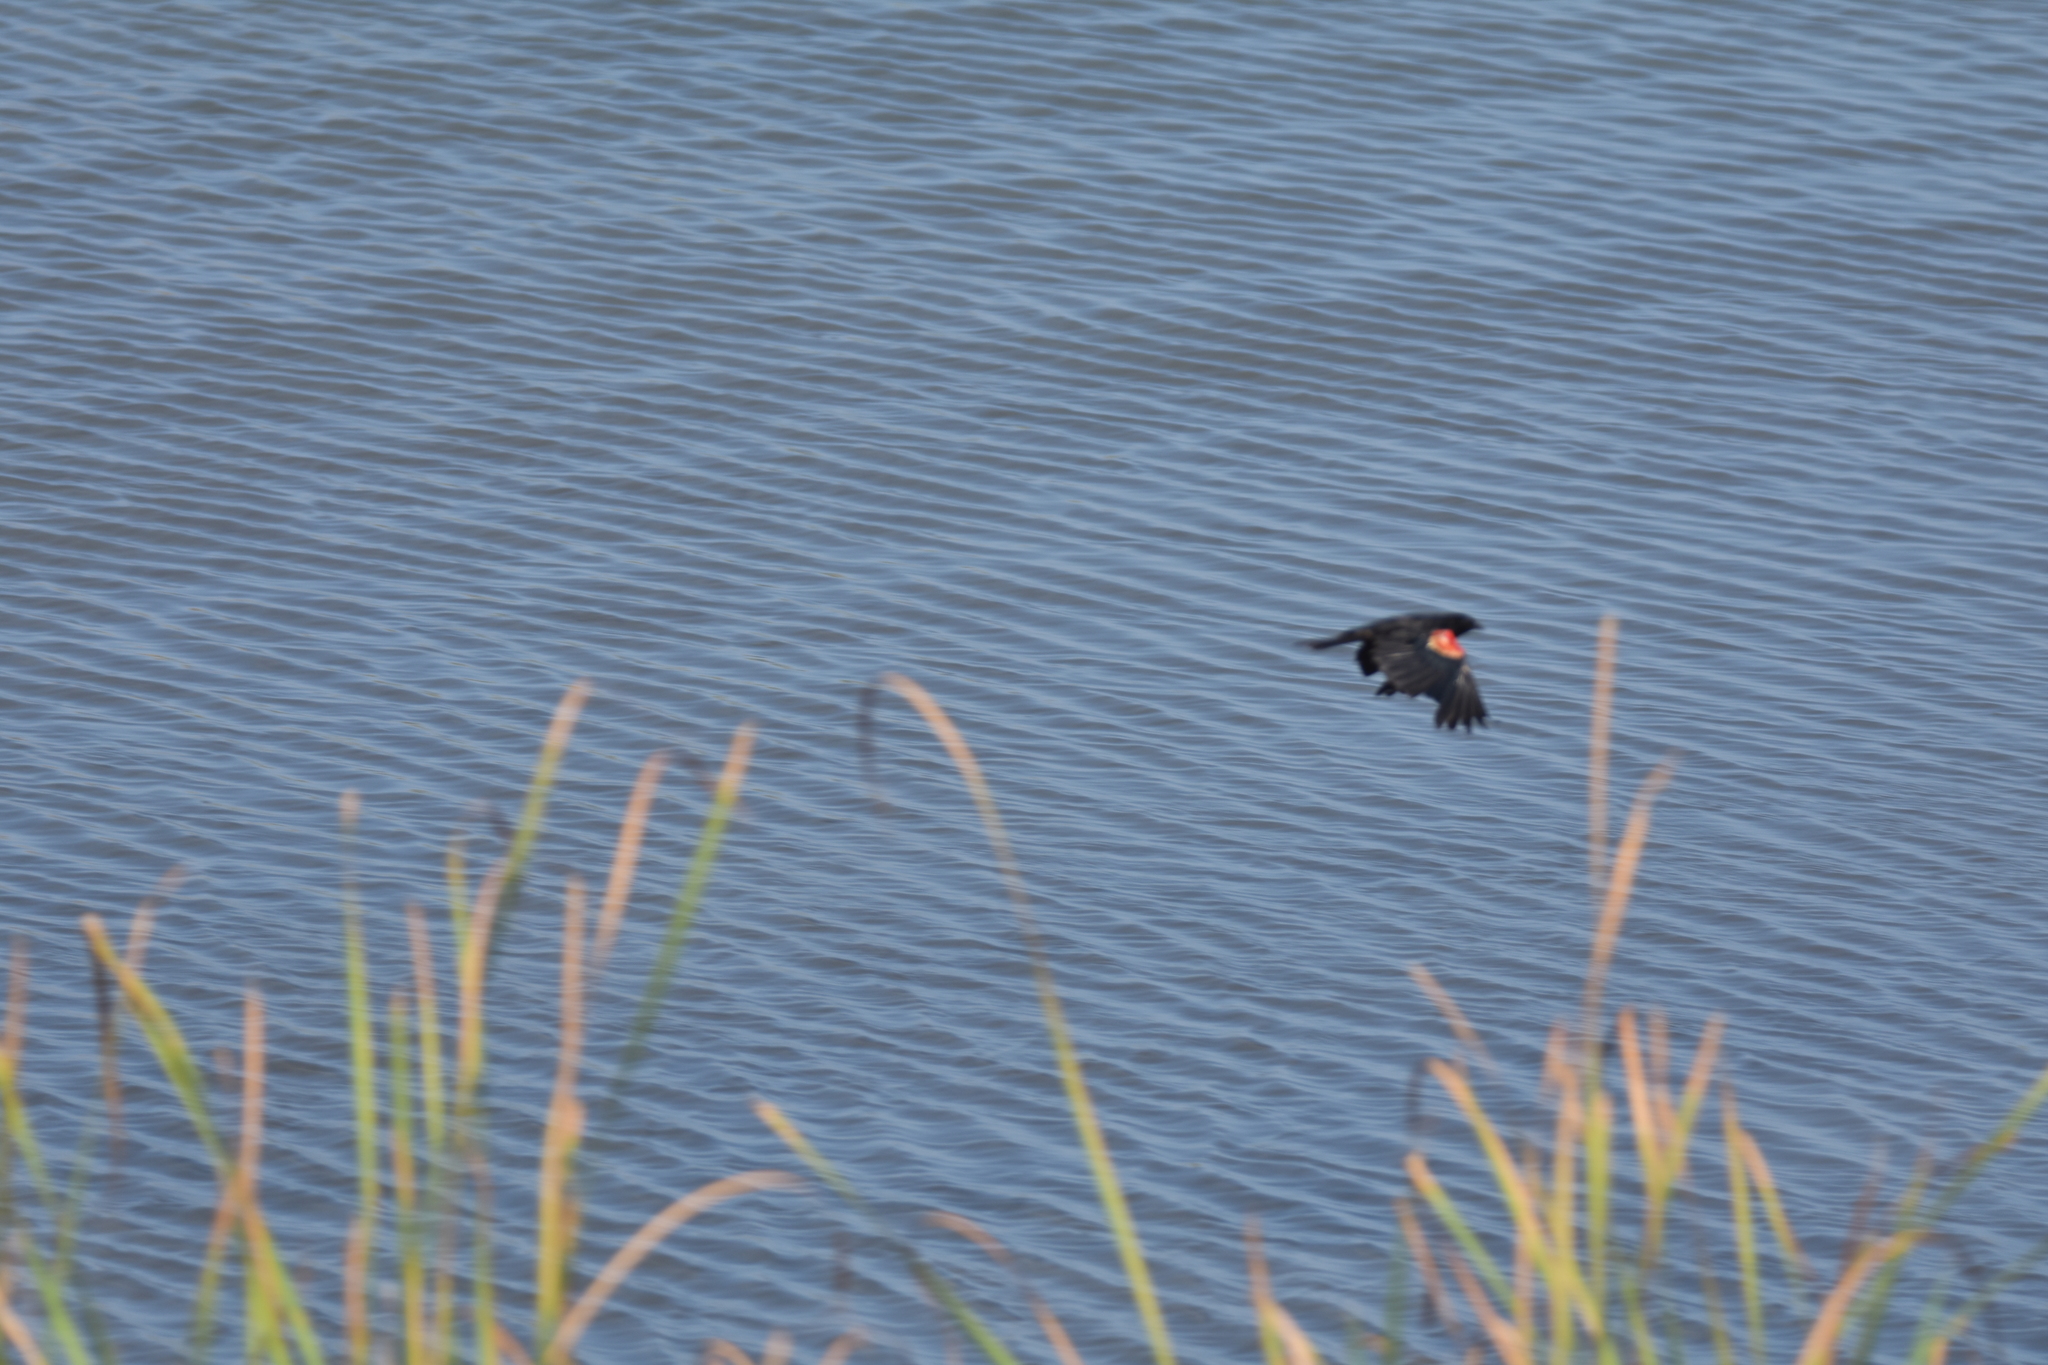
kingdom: Animalia
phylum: Chordata
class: Aves
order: Passeriformes
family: Icteridae
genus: Agelaius
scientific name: Agelaius phoeniceus
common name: Red-winged blackbird
